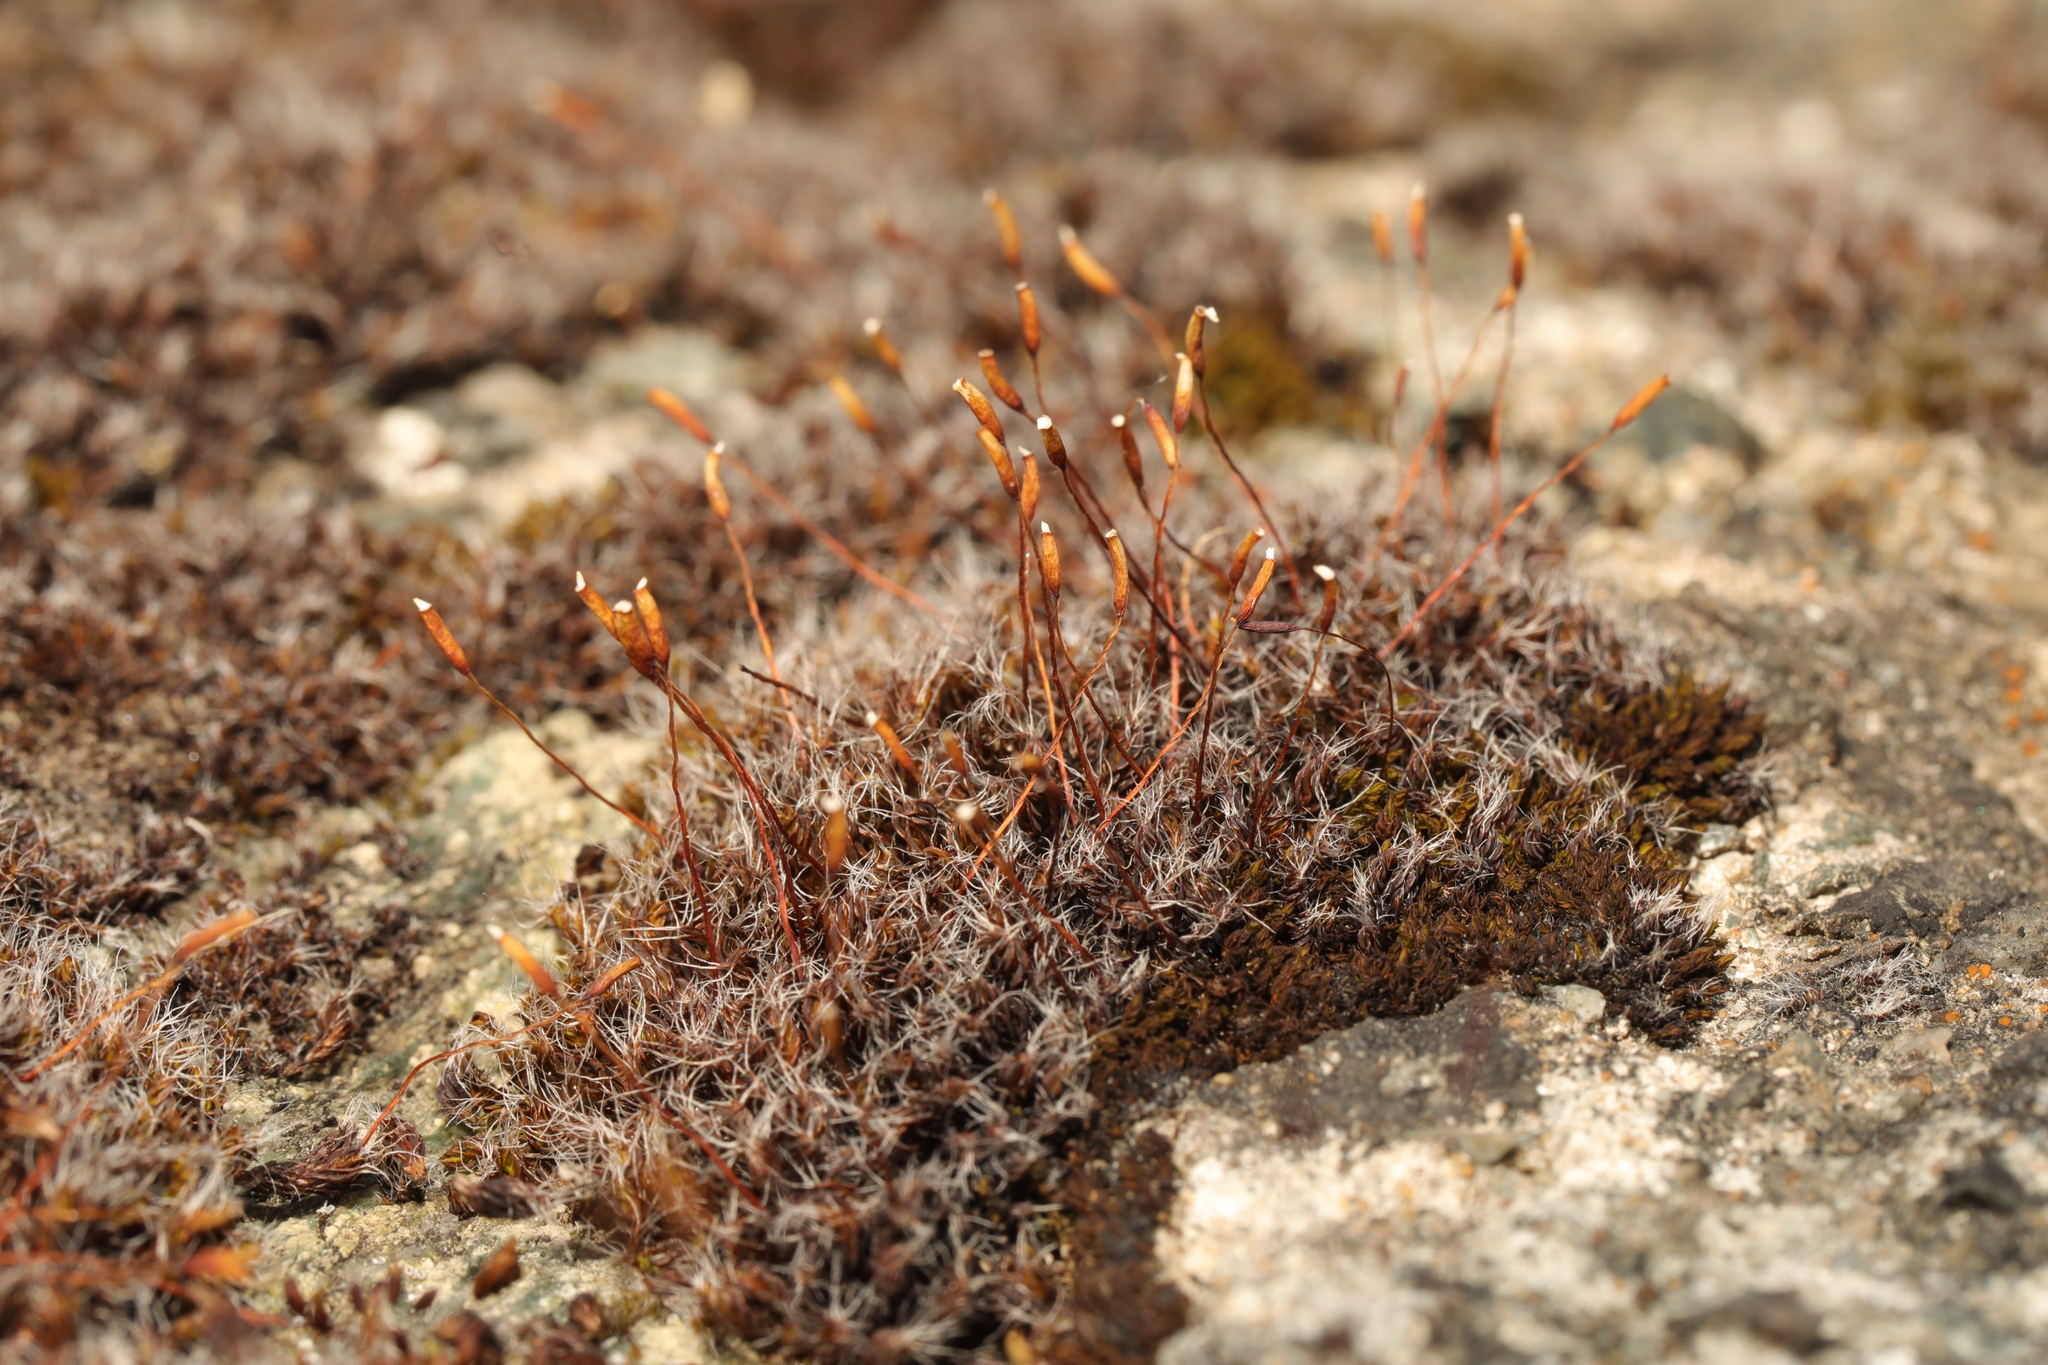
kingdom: Plantae
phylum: Bryophyta
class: Bryopsida
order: Pottiales
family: Pottiaceae
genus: Tortula
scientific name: Tortula muralis
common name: Wall screw-moss
